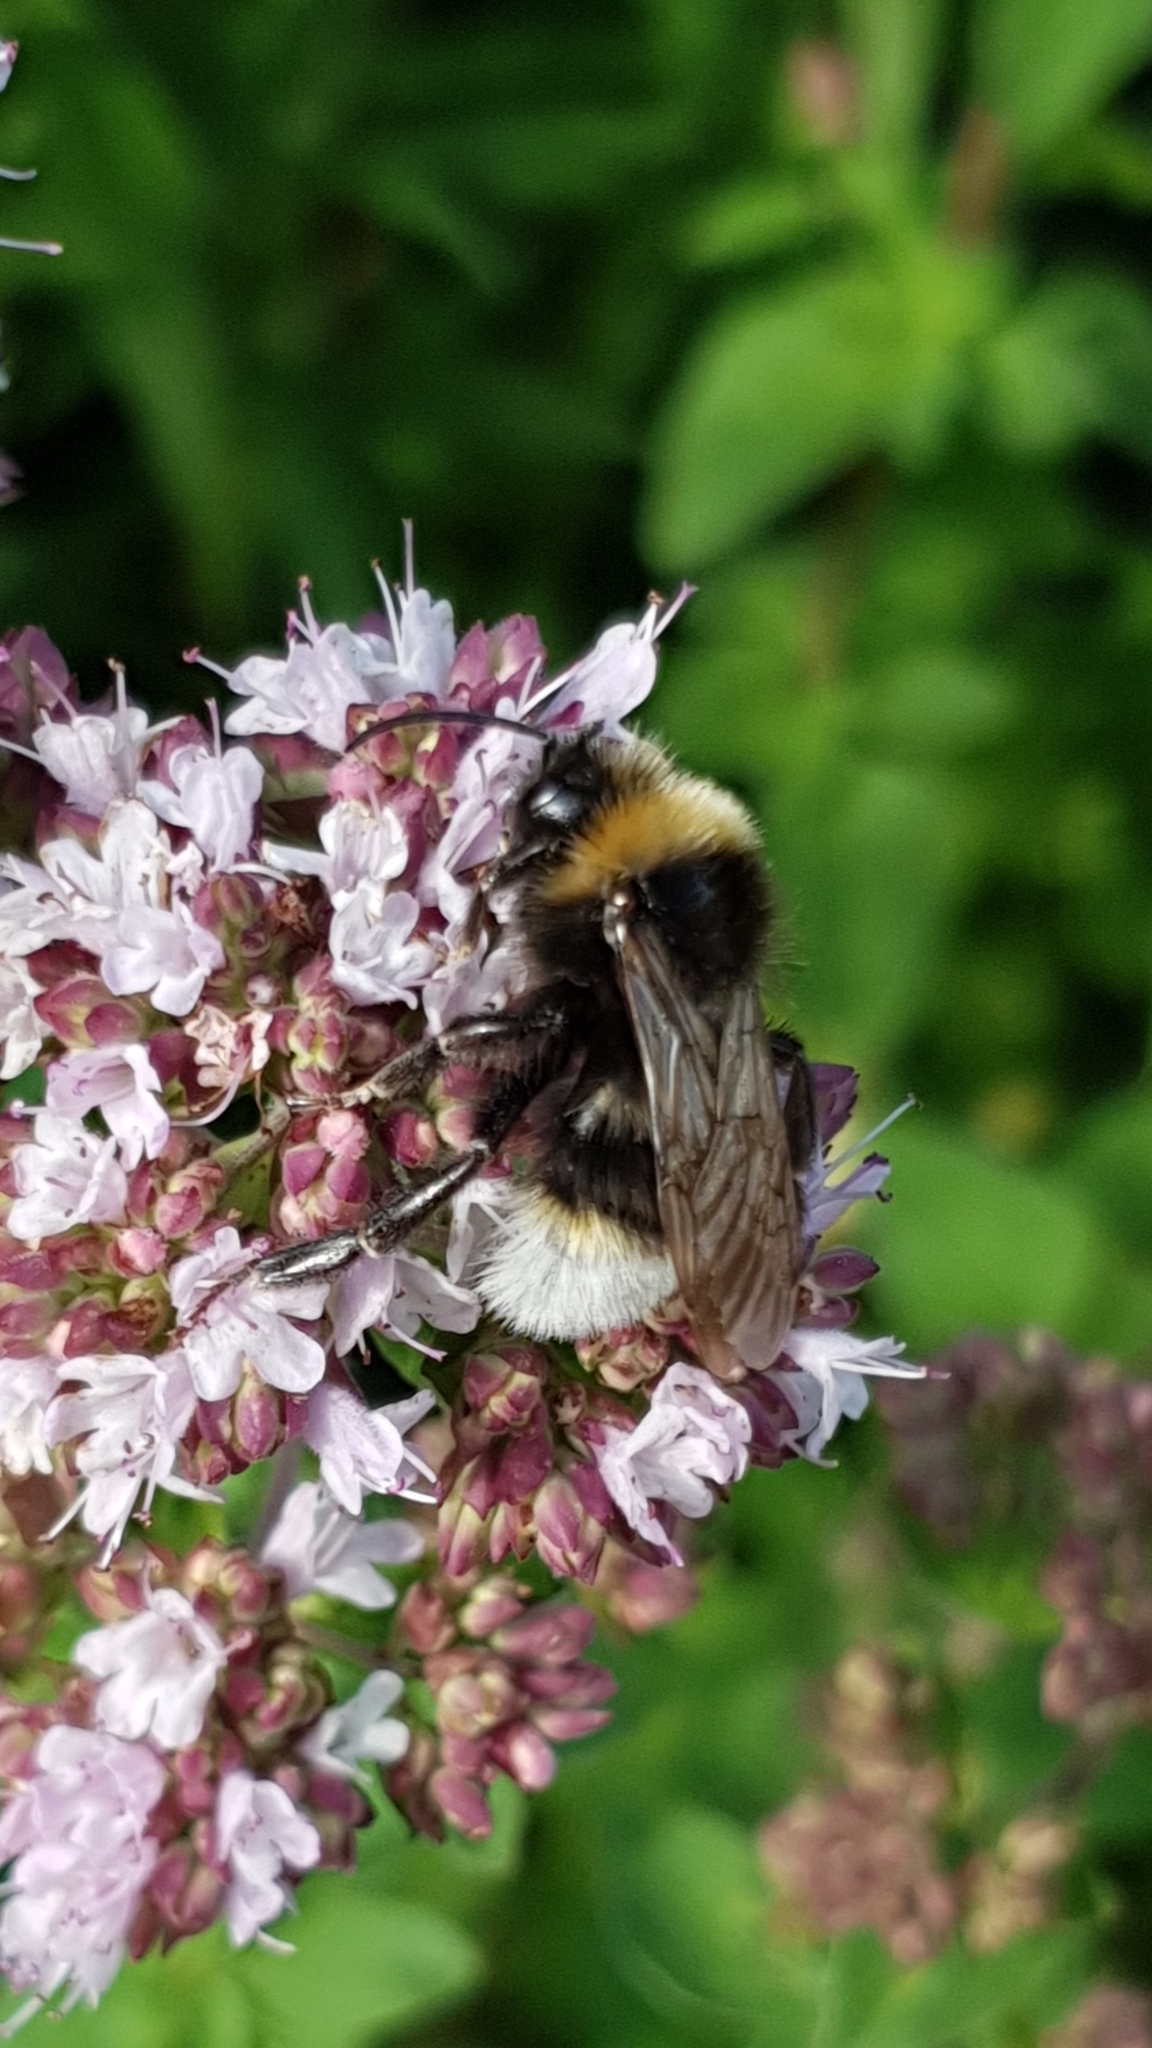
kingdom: Animalia
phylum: Arthropoda
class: Insecta
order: Hymenoptera
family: Apidae
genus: Bombus
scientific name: Bombus vestalis
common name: Vestal cuckoo bee
